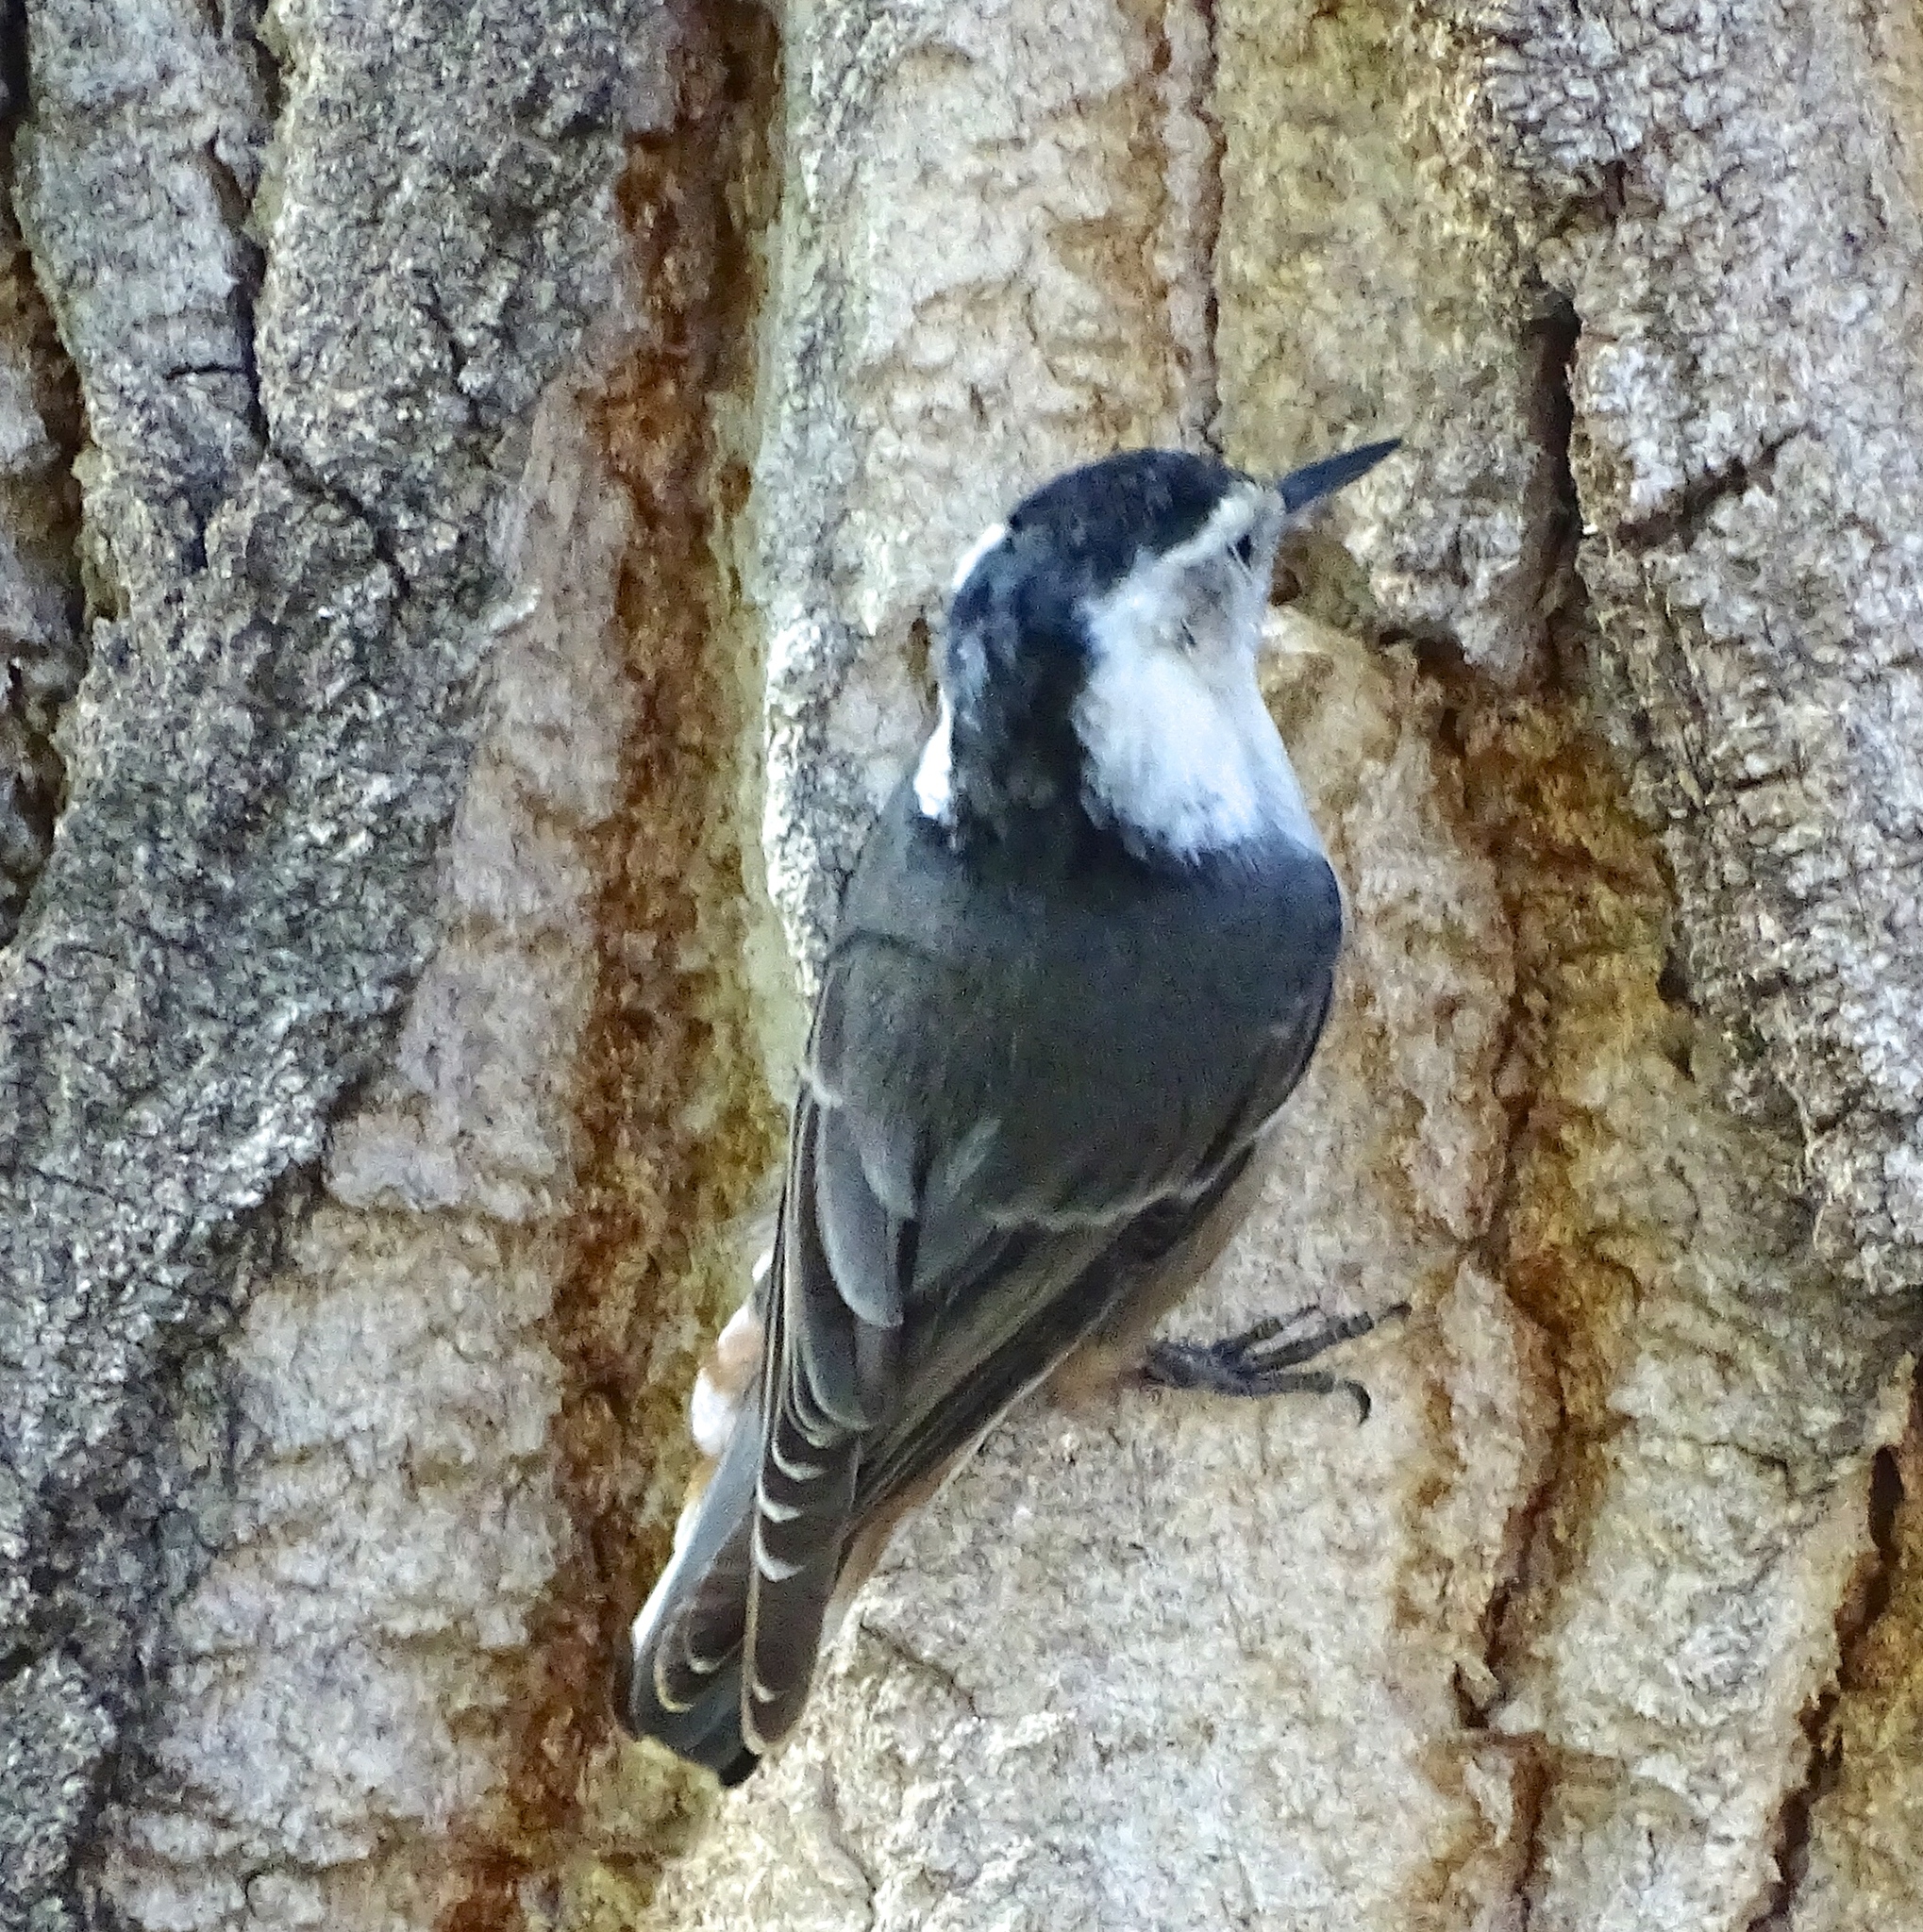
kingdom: Animalia
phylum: Chordata
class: Aves
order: Passeriformes
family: Sittidae
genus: Sitta
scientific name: Sitta carolinensis
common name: White-breasted nuthatch
